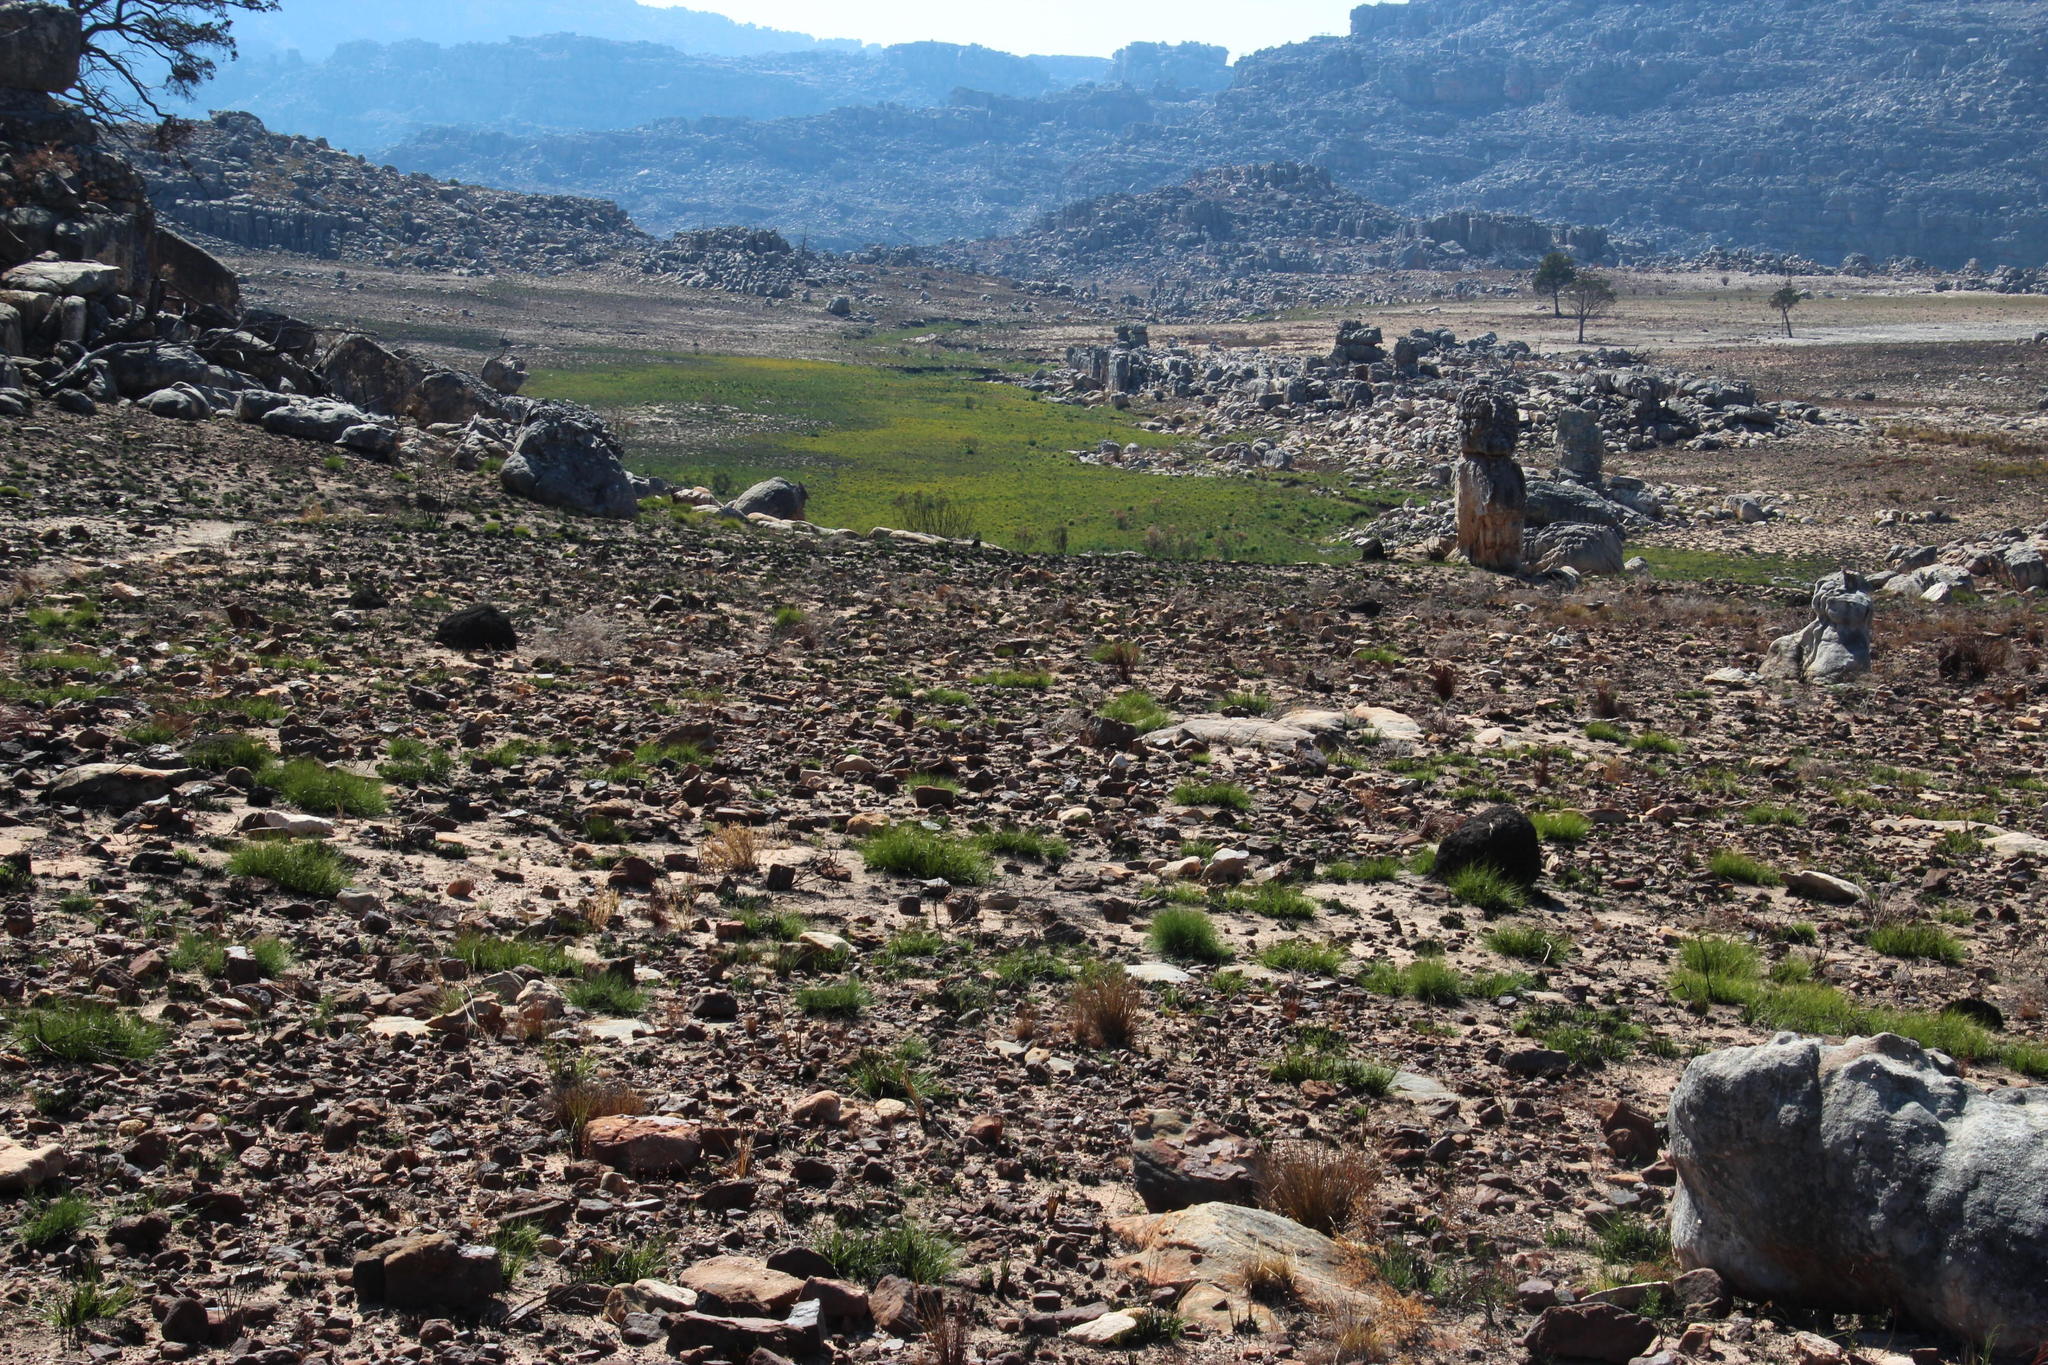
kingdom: Animalia
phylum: Arthropoda
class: Insecta
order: Blattodea
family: Termitidae
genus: Amitermes
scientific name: Amitermes hastatus
